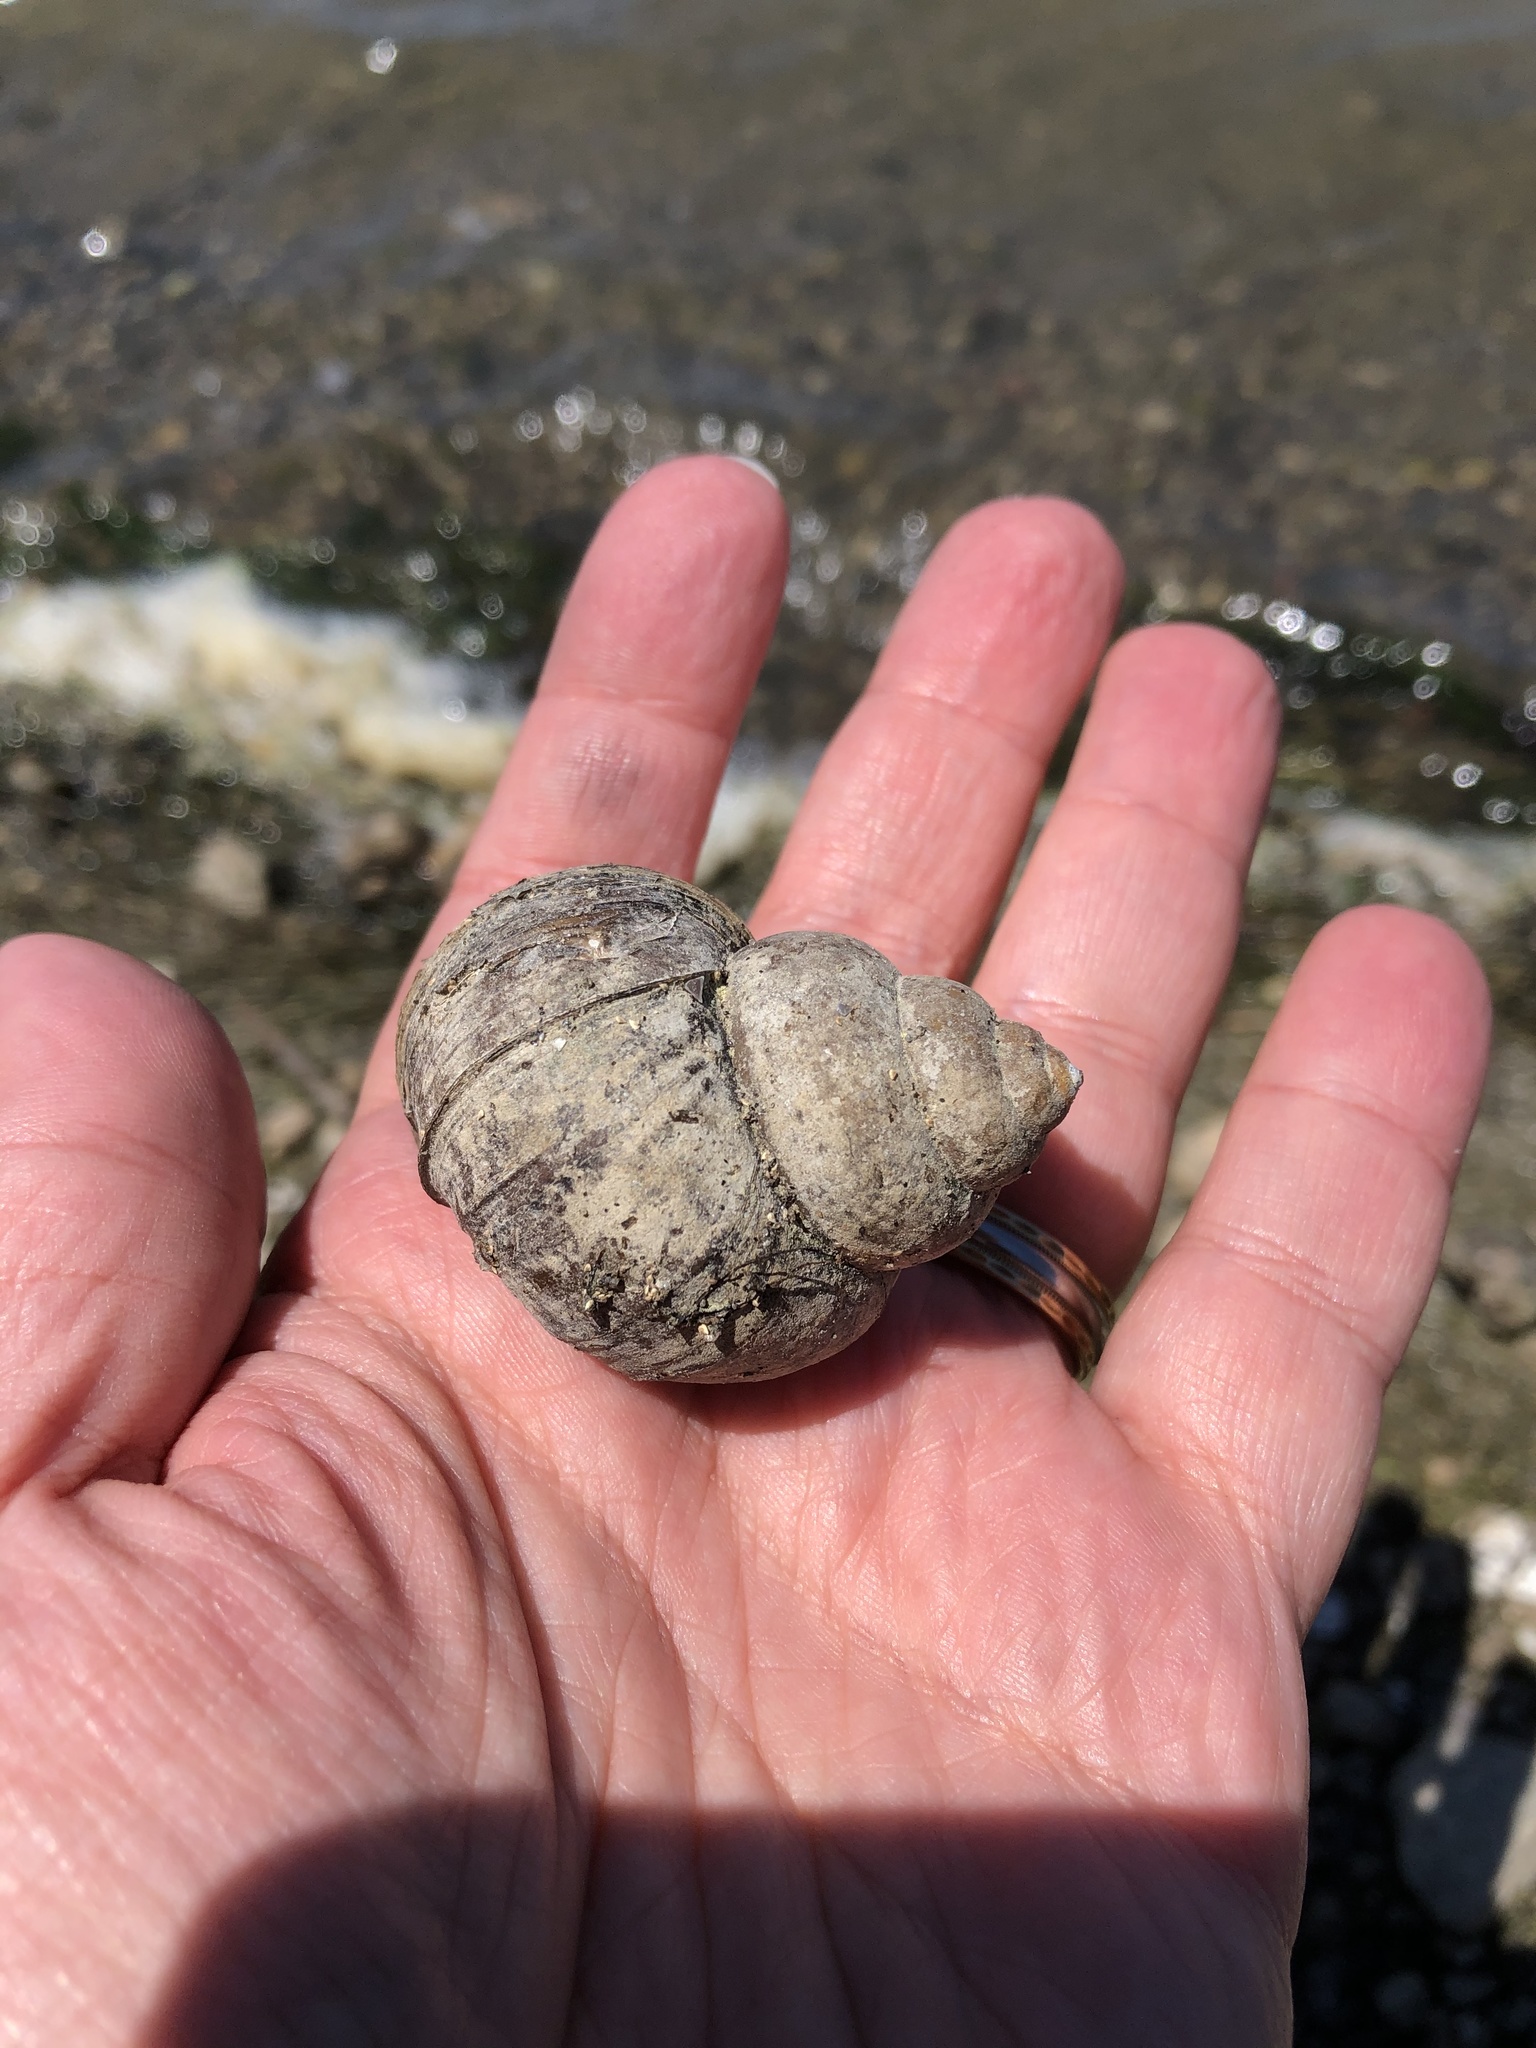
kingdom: Animalia
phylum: Mollusca
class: Gastropoda
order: Architaenioglossa
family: Viviparidae
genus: Cipangopaludina
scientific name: Cipangopaludina chinensis
